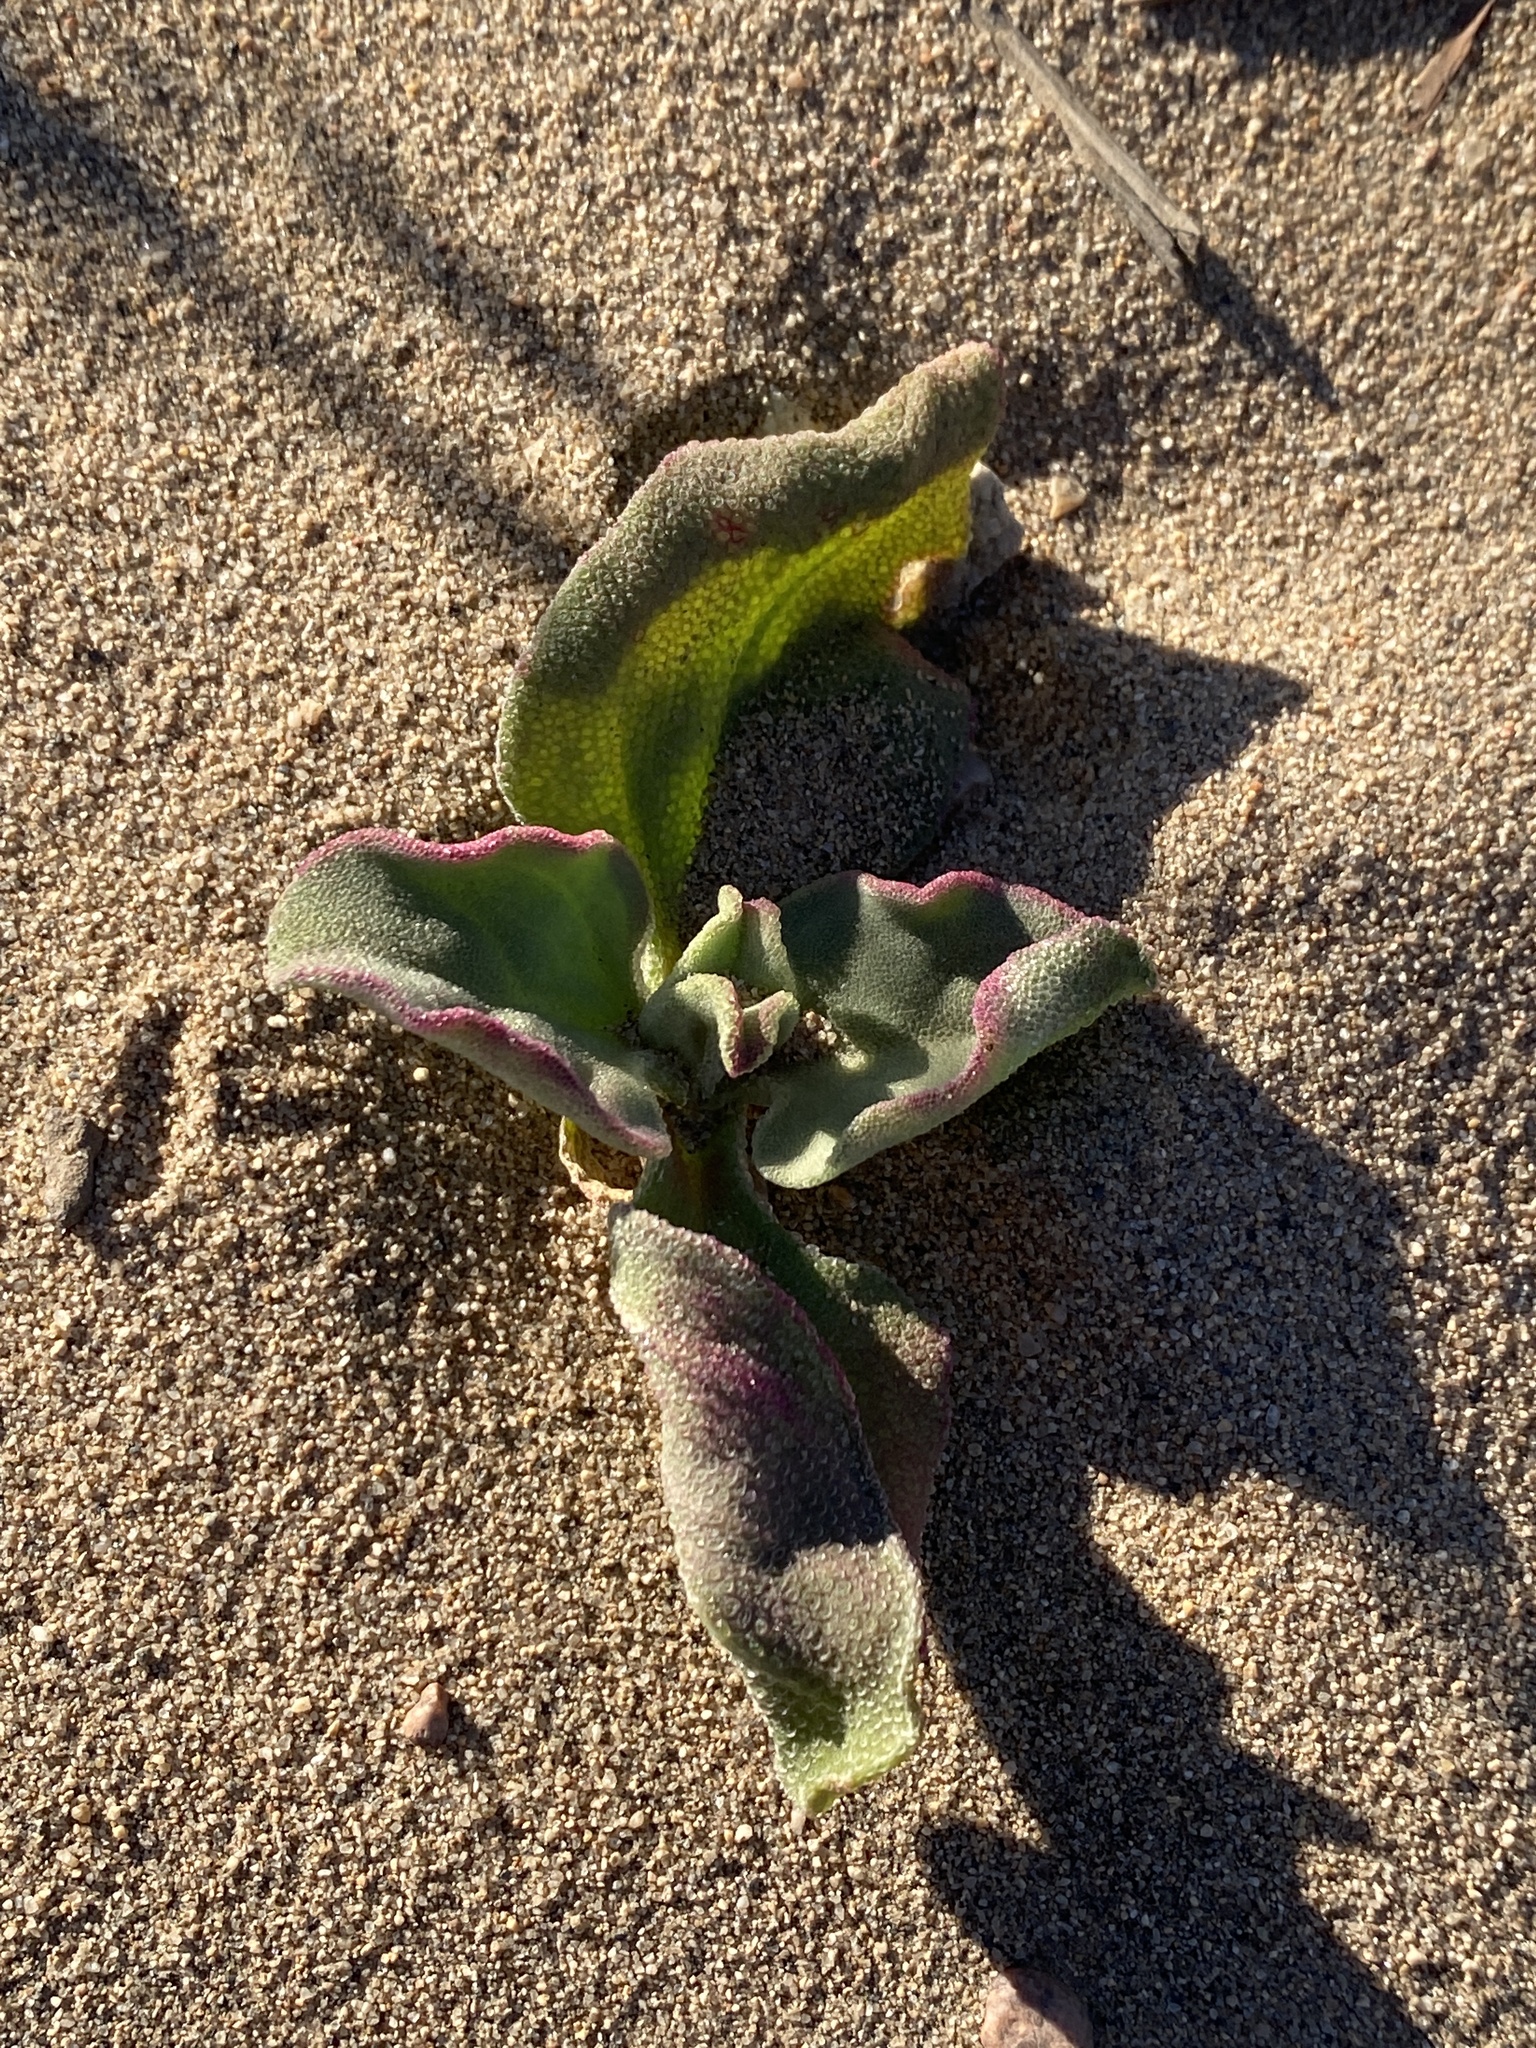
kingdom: Plantae
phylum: Tracheophyta
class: Magnoliopsida
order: Caryophyllales
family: Aizoaceae
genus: Mesembryanthemum
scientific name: Mesembryanthemum crystallinum
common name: Common iceplant
